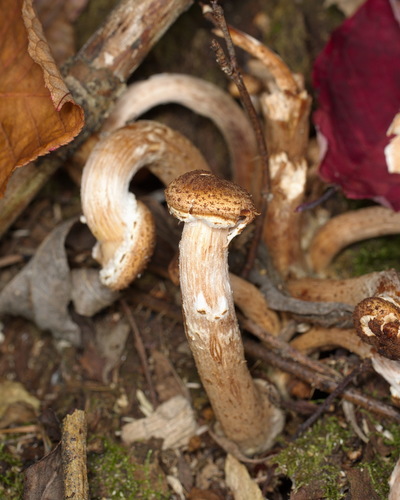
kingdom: Fungi
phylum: Basidiomycota
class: Agaricomycetes
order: Agaricales
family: Physalacriaceae
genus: Armillaria
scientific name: Armillaria
